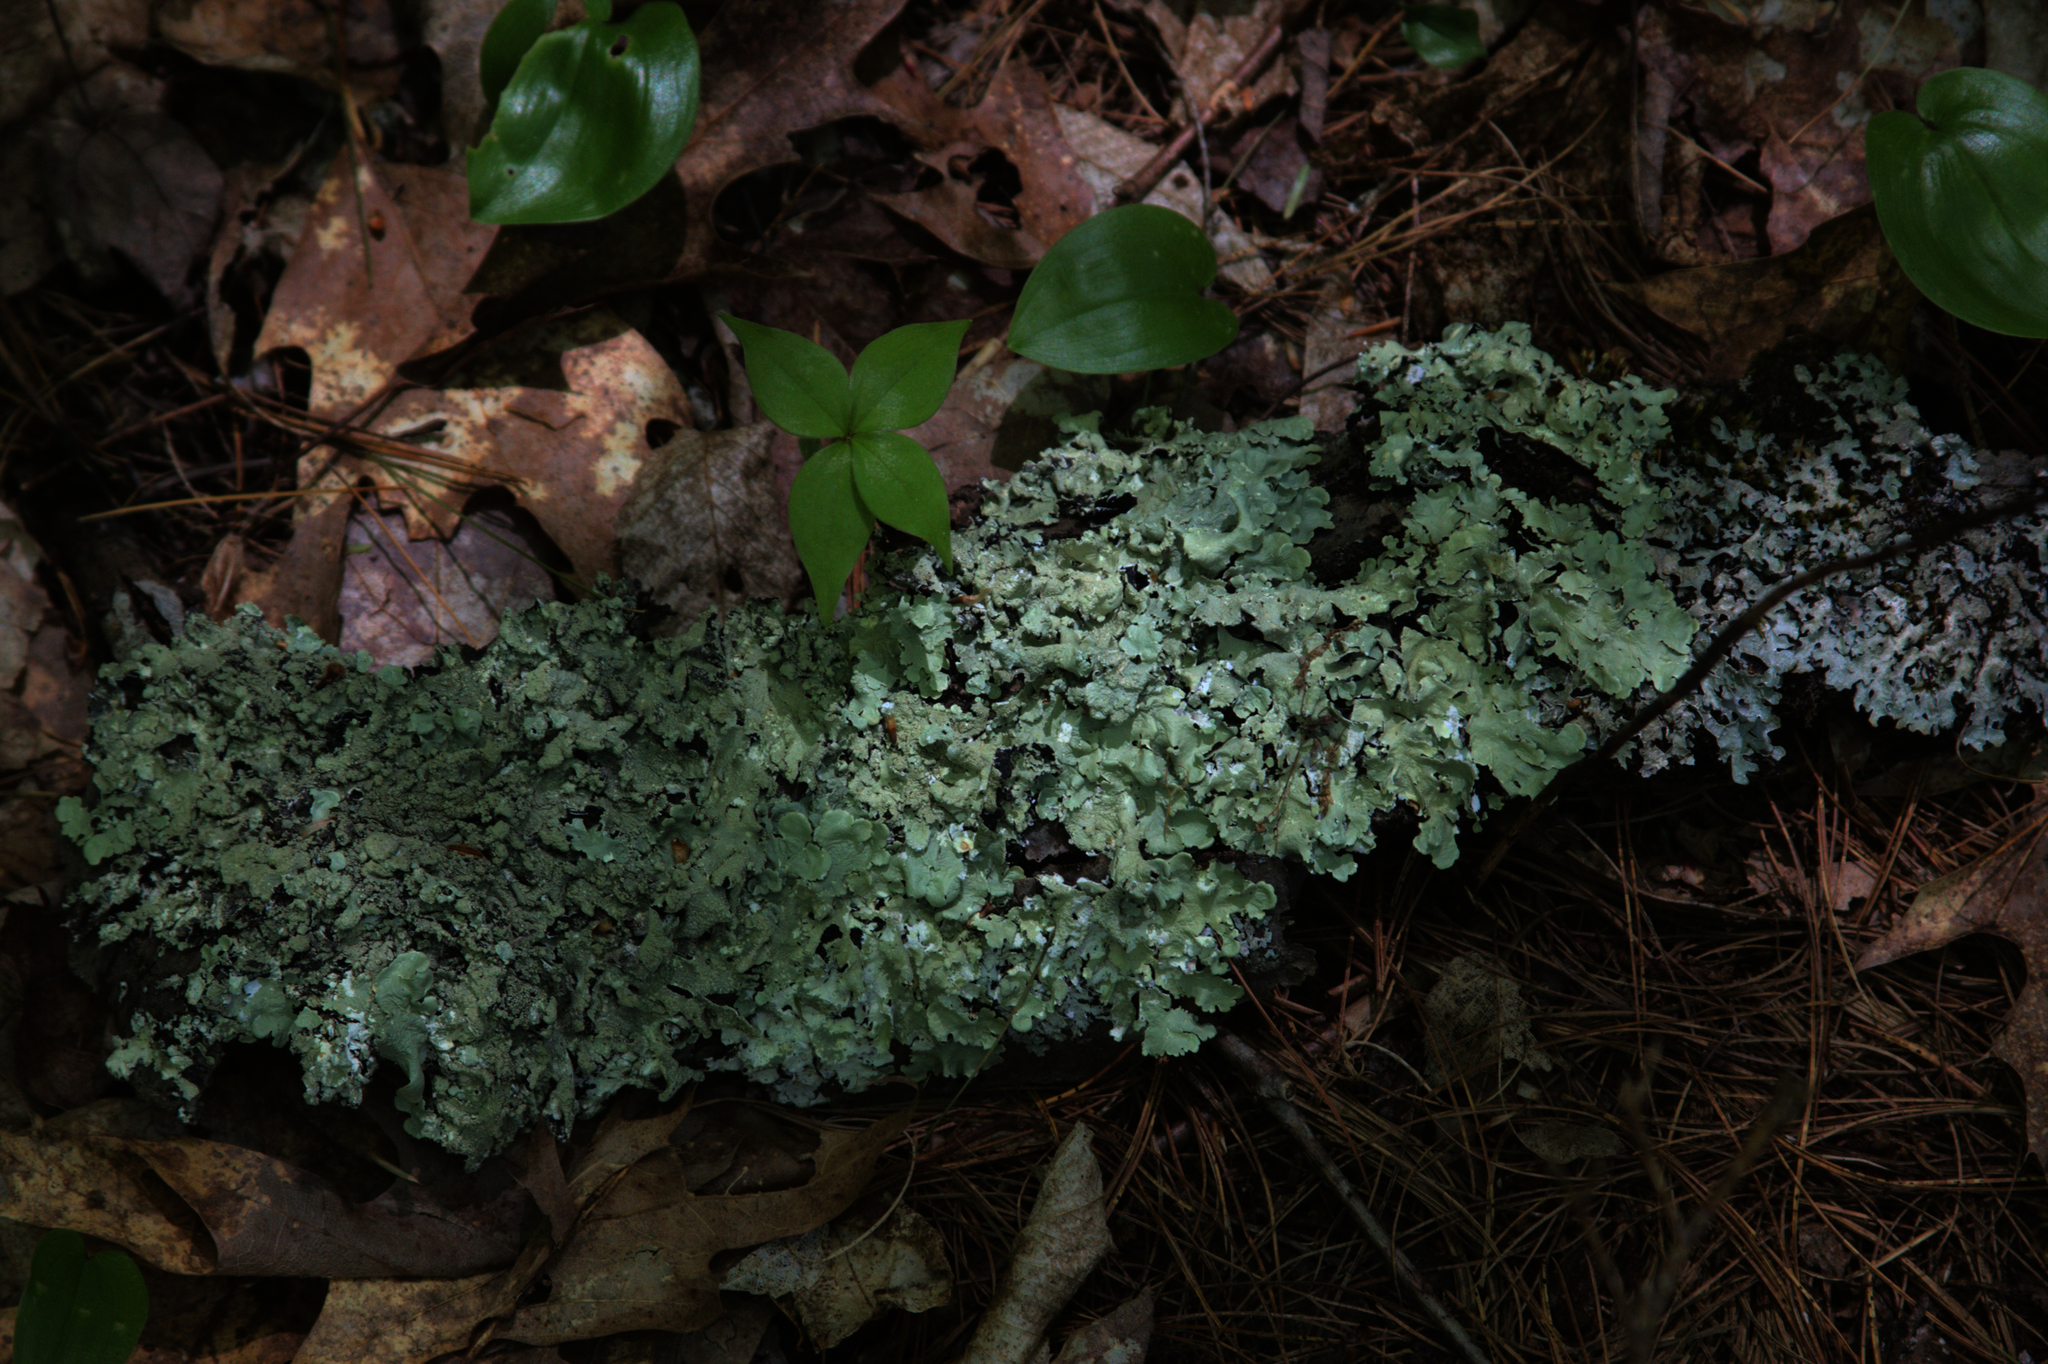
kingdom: Plantae
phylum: Tracheophyta
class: Liliopsida
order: Asparagales
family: Asparagaceae
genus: Maianthemum
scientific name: Maianthemum canadense
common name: False lily-of-the-valley
